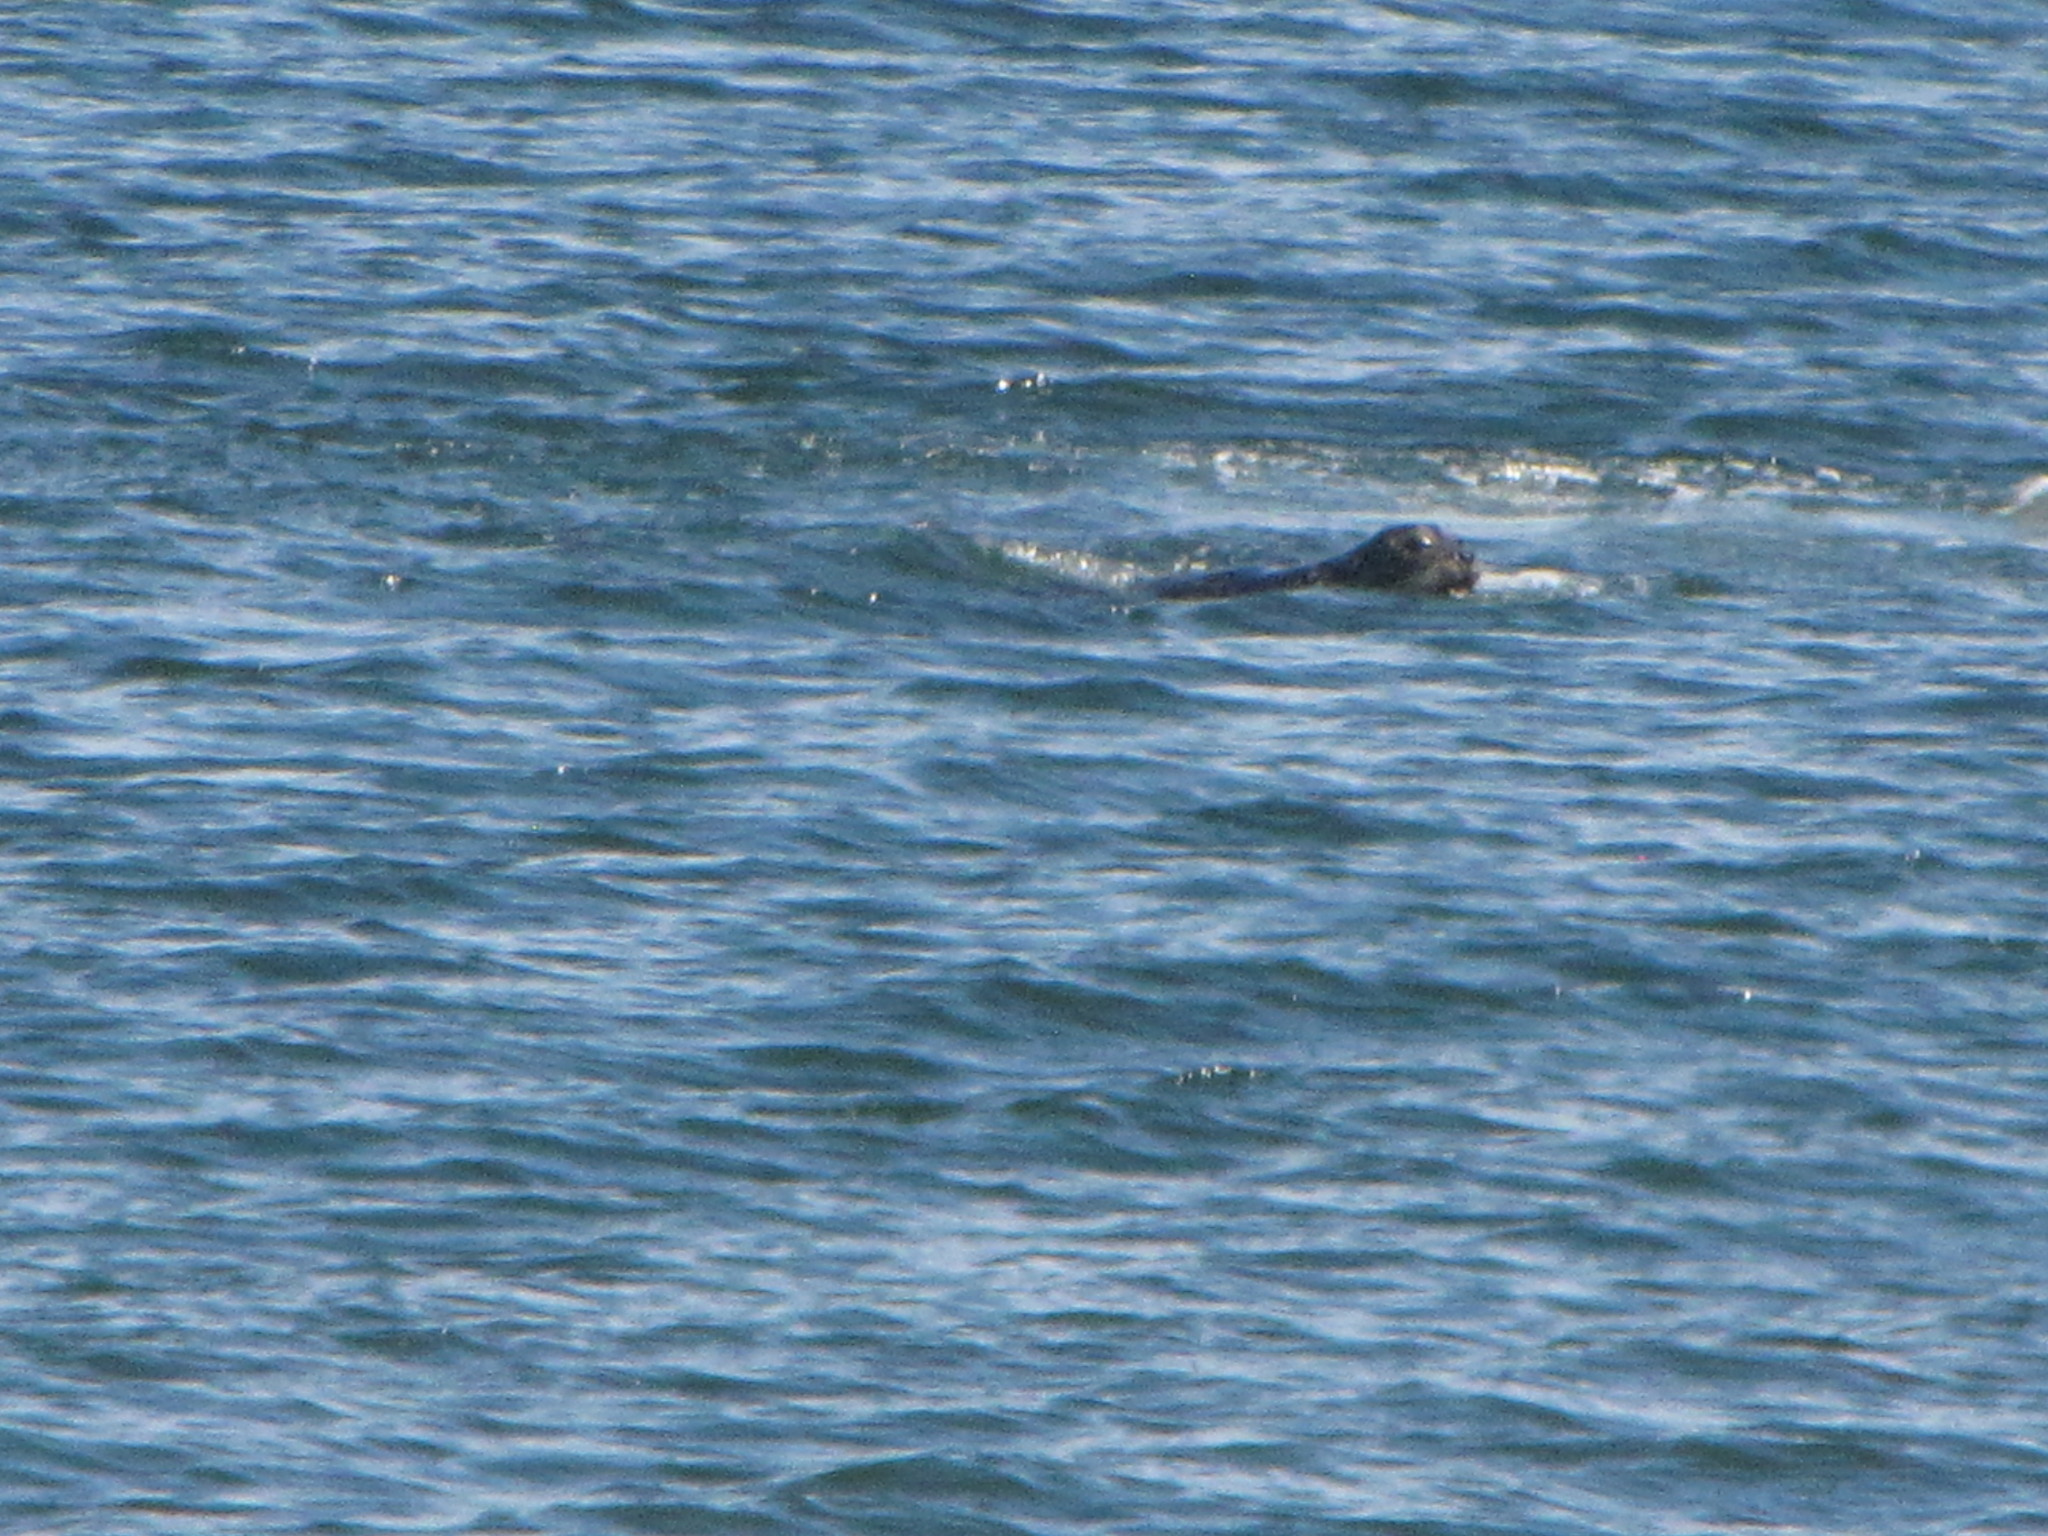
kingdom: Animalia
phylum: Chordata
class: Mammalia
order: Carnivora
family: Phocidae
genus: Phoca
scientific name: Phoca vitulina
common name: Harbor seal
